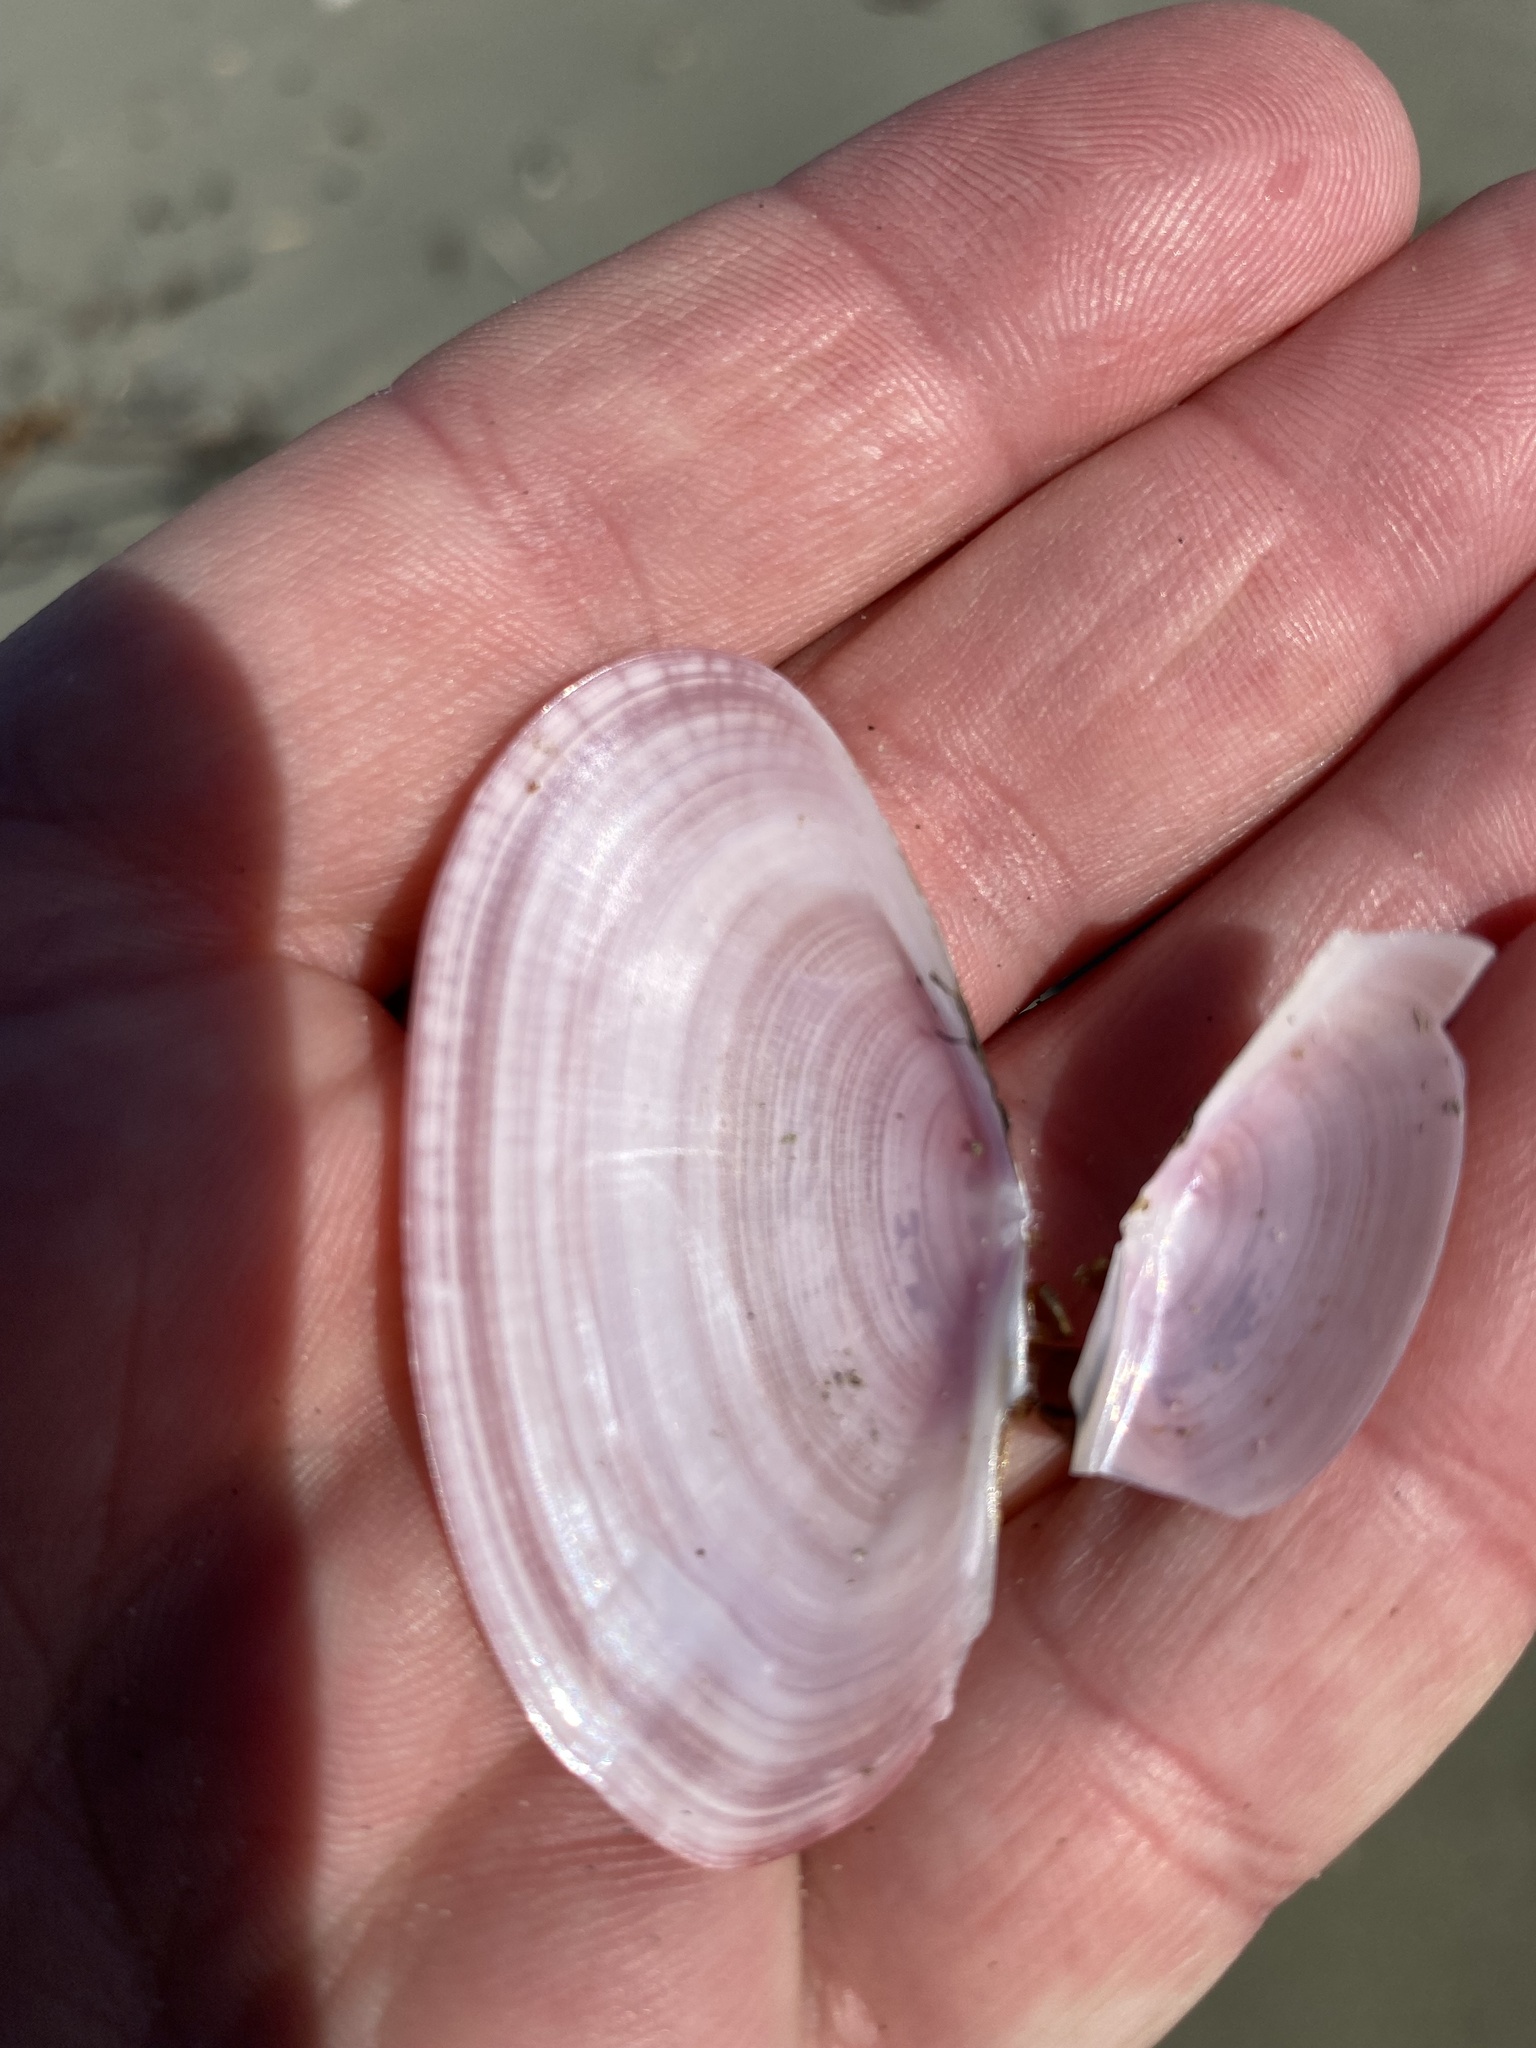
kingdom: Animalia
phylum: Mollusca
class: Bivalvia
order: Cardiida
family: Psammobiidae
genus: Gari
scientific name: Gari lineolata
